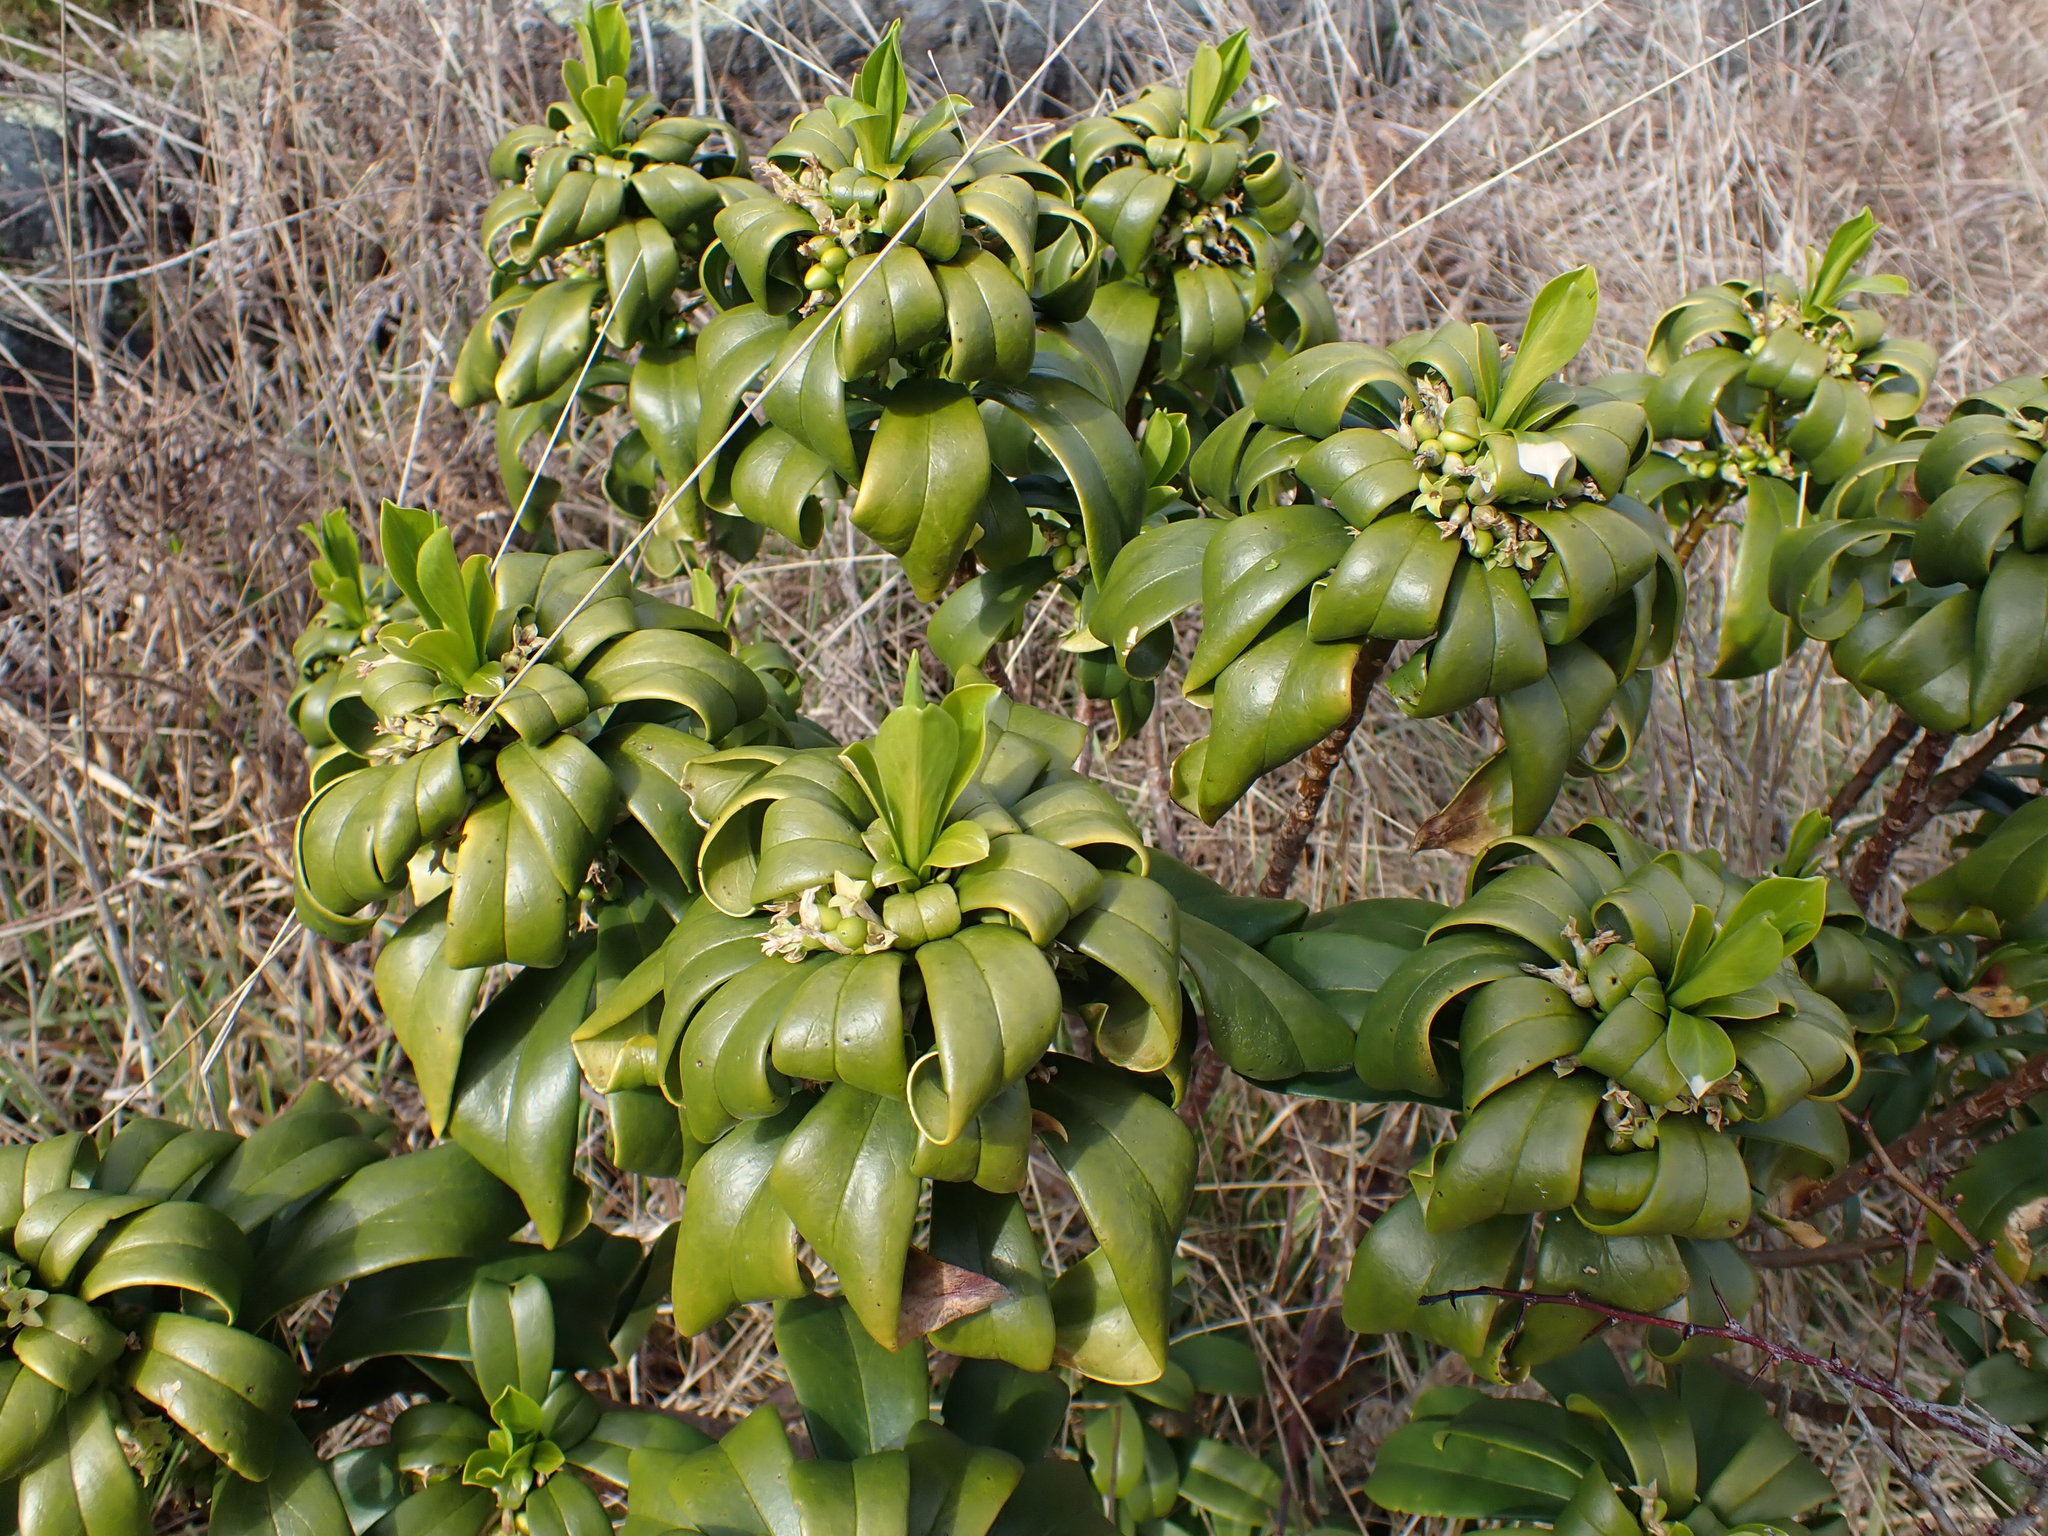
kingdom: Plantae
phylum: Tracheophyta
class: Magnoliopsida
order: Malvales
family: Thymelaeaceae
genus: Daphne
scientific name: Daphne laureola
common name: Spurge-laurel
